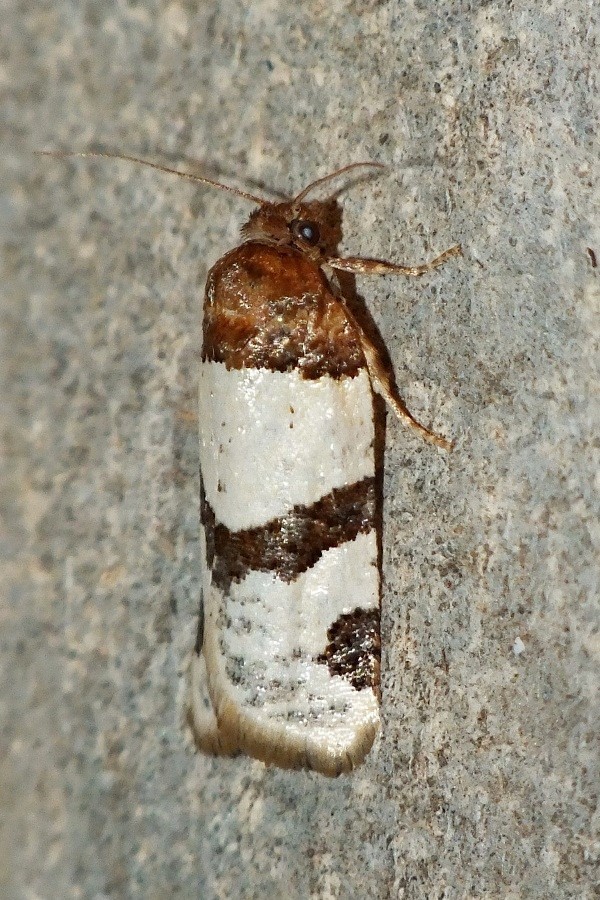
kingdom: Animalia
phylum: Arthropoda
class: Insecta
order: Lepidoptera
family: Tortricidae
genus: Periclepsis
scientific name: Periclepsis cinctana
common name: Dover twist
